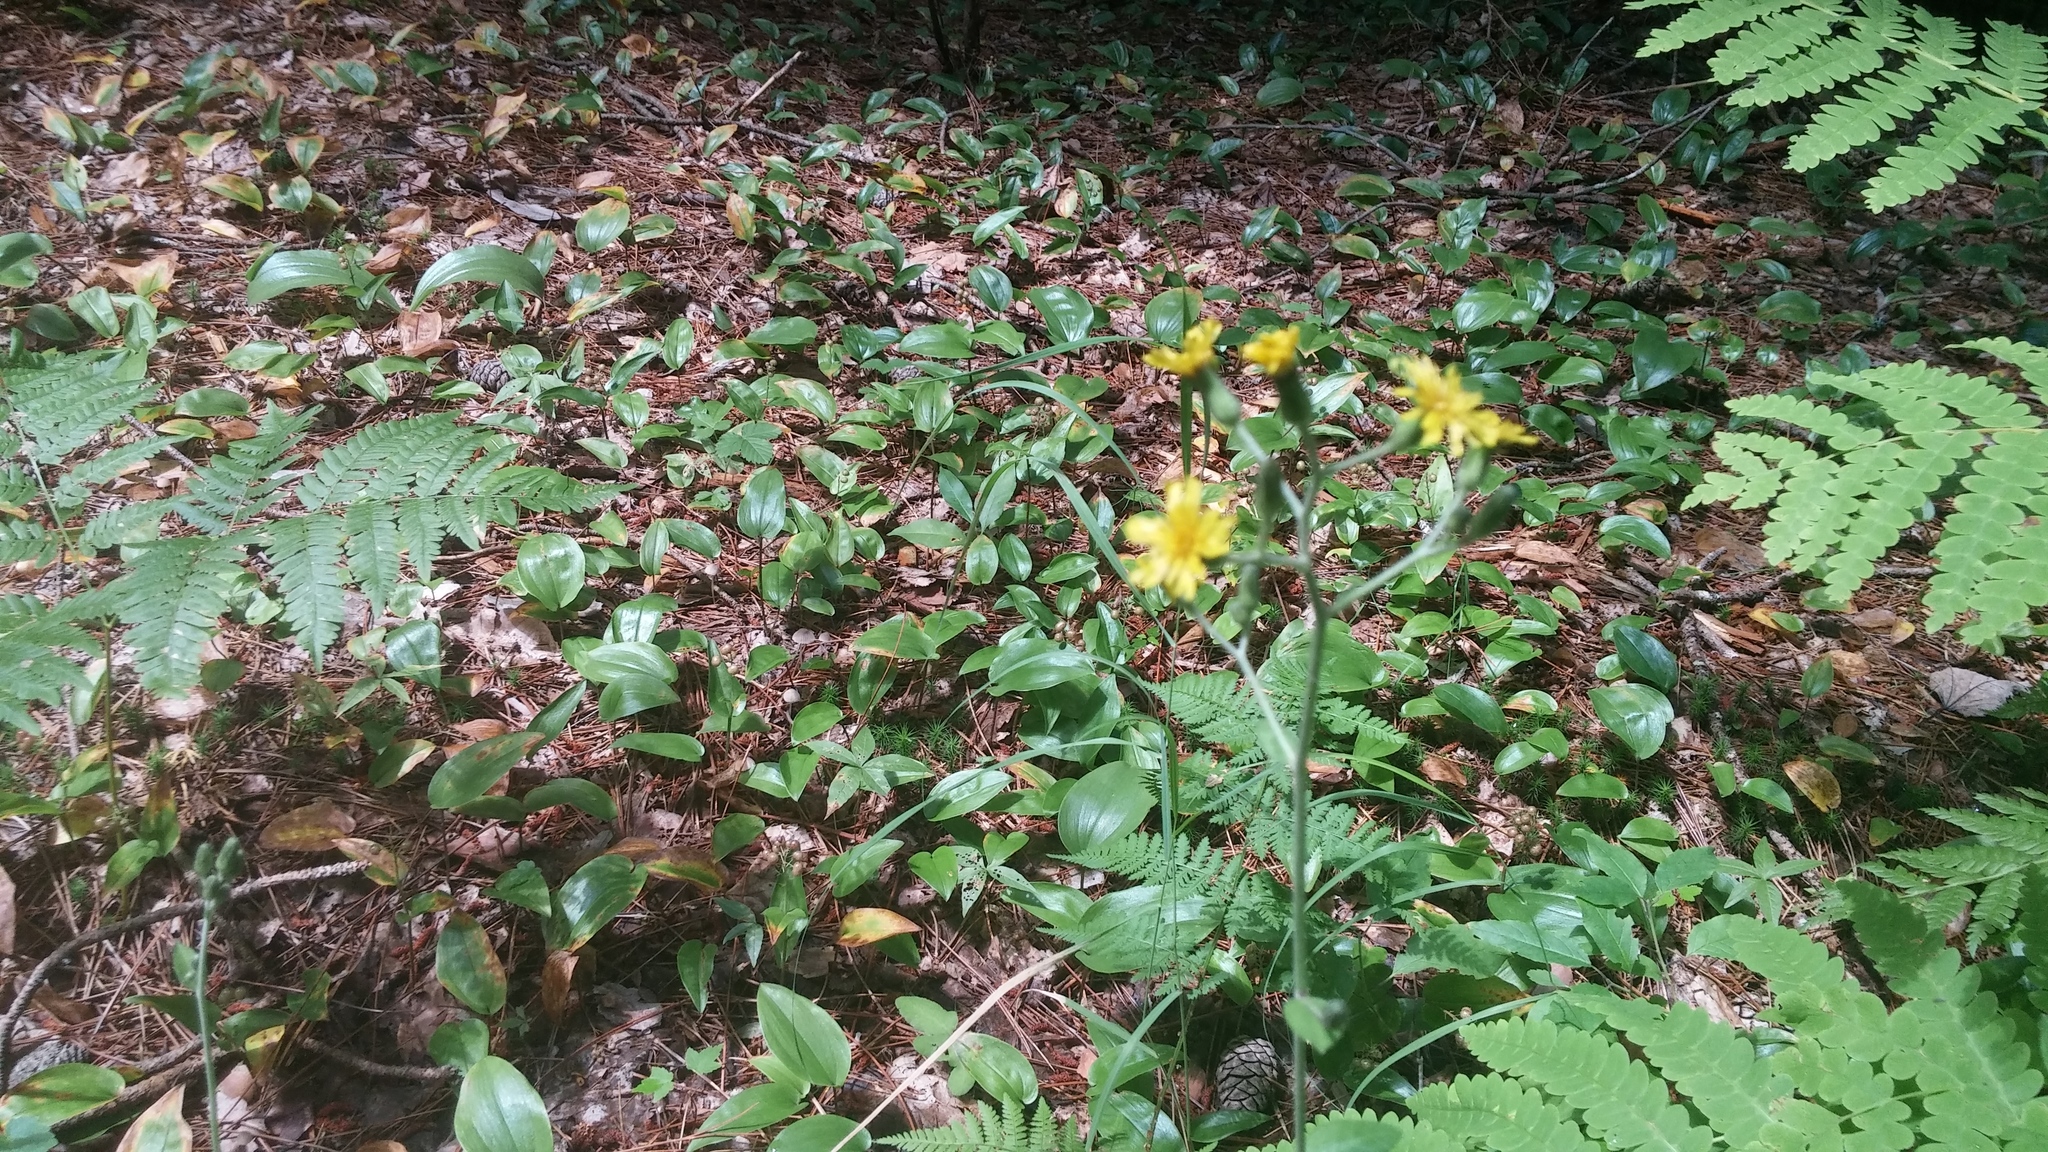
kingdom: Plantae
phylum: Tracheophyta
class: Magnoliopsida
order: Asterales
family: Asteraceae
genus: Hieracium
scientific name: Hieracium scabrum
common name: Rough hawkweed
